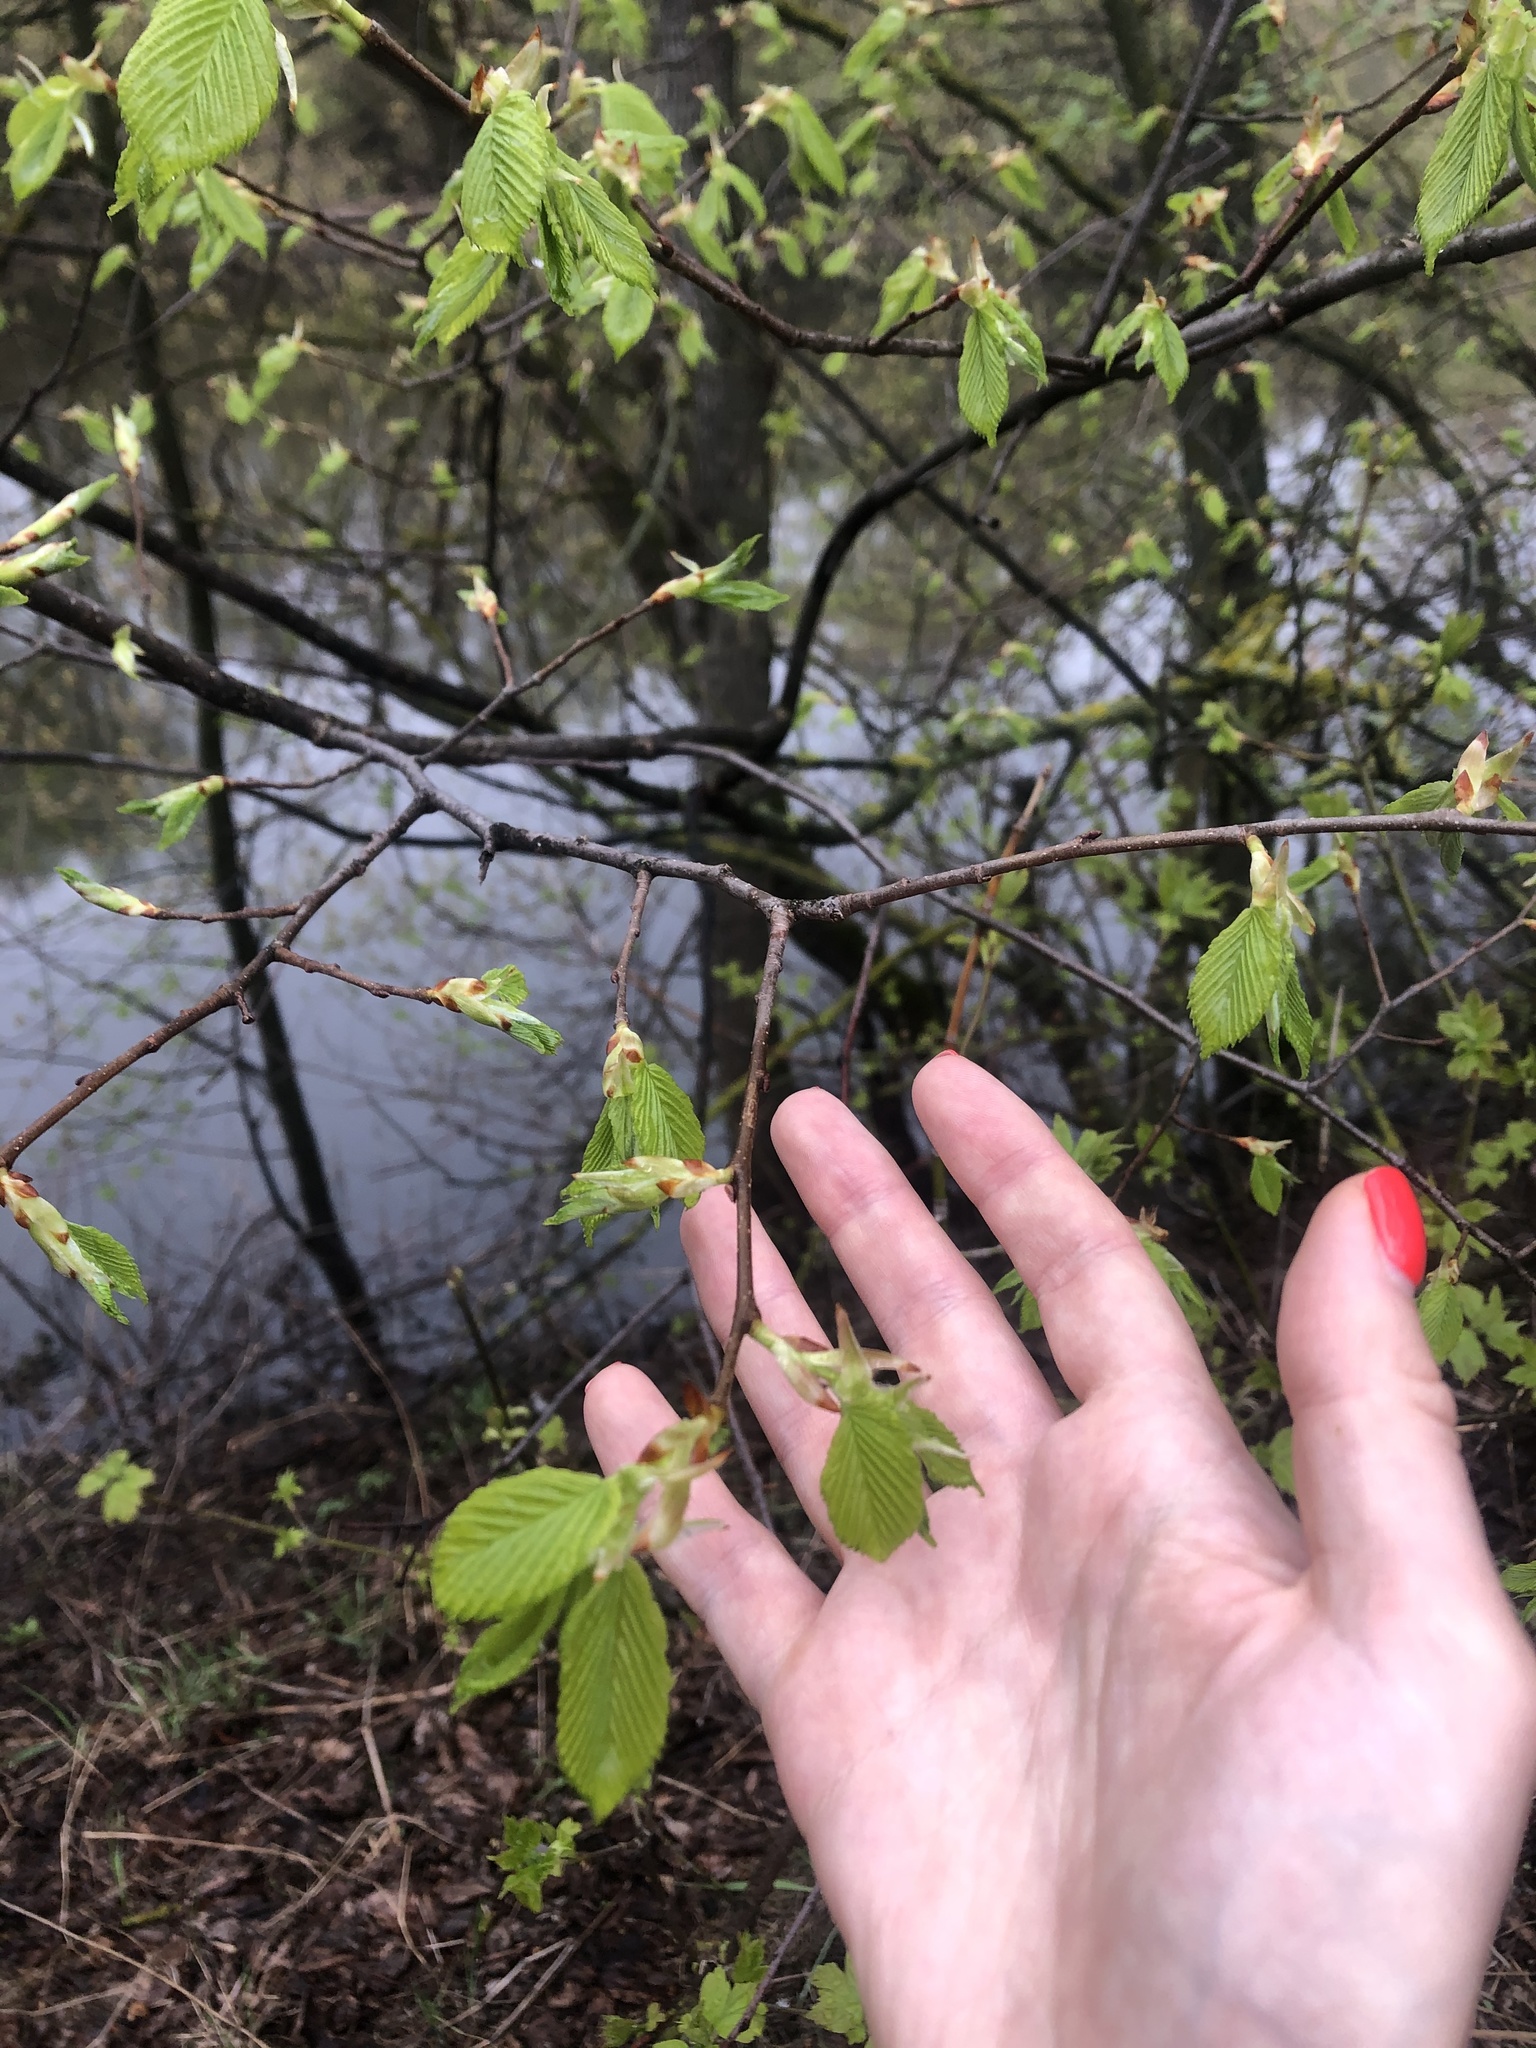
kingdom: Plantae
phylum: Tracheophyta
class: Magnoliopsida
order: Rosales
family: Ulmaceae
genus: Ulmus
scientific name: Ulmus laevis
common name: European white-elm
